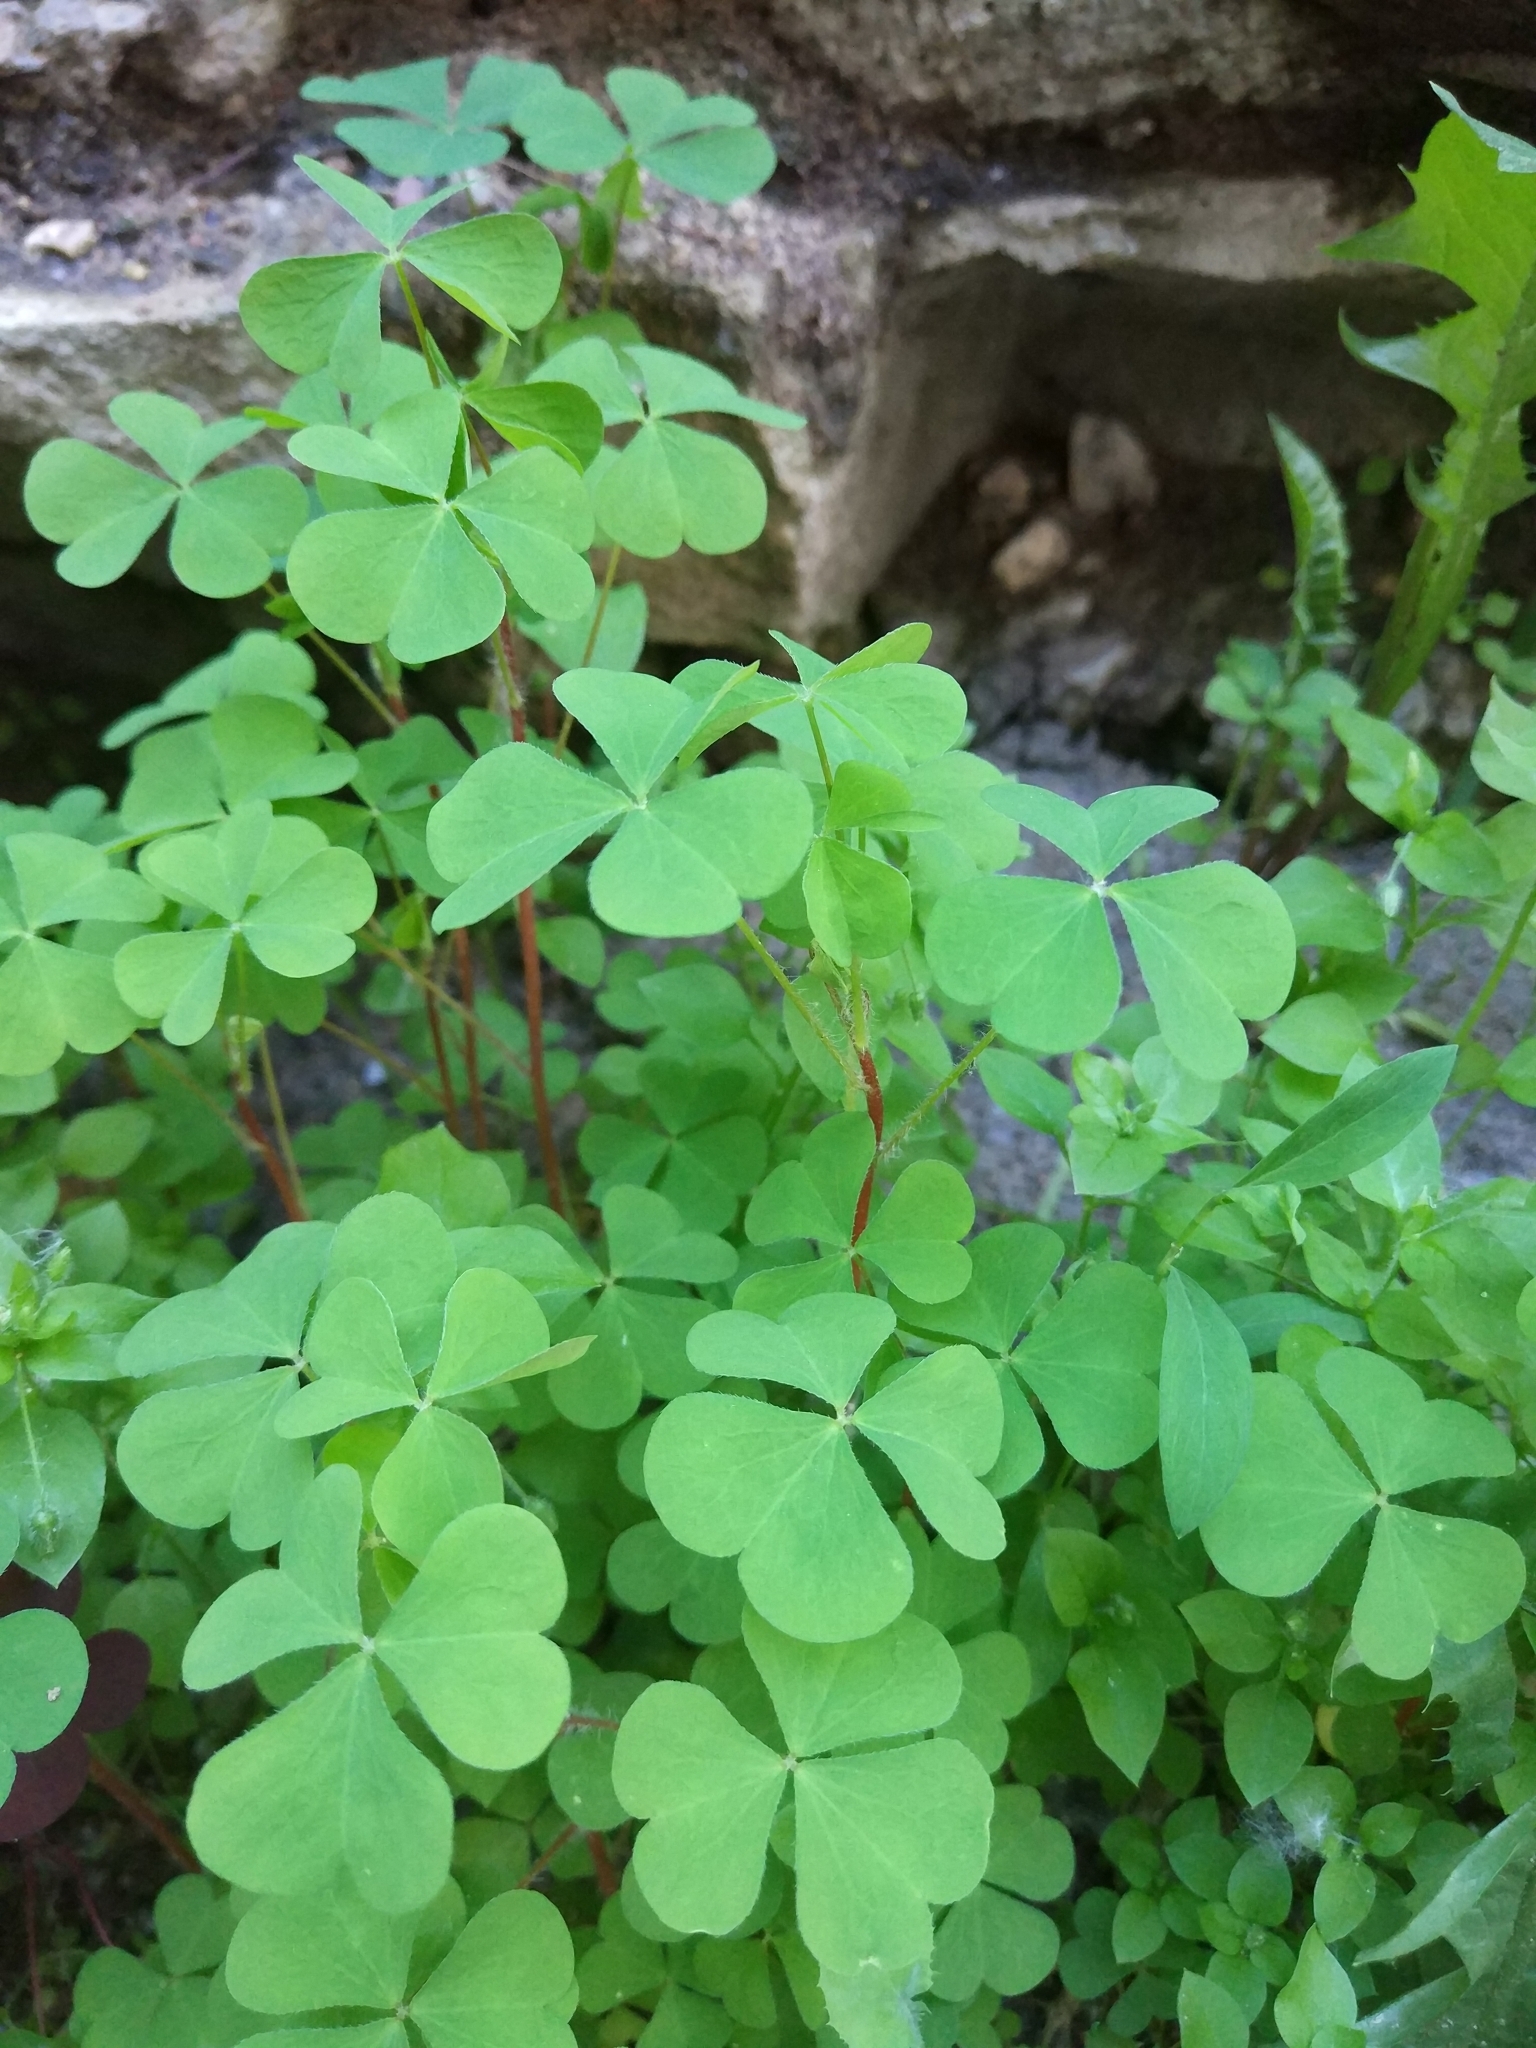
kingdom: Plantae
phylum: Tracheophyta
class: Magnoliopsida
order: Oxalidales
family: Oxalidaceae
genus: Oxalis
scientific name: Oxalis stricta
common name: Upright yellow-sorrel
